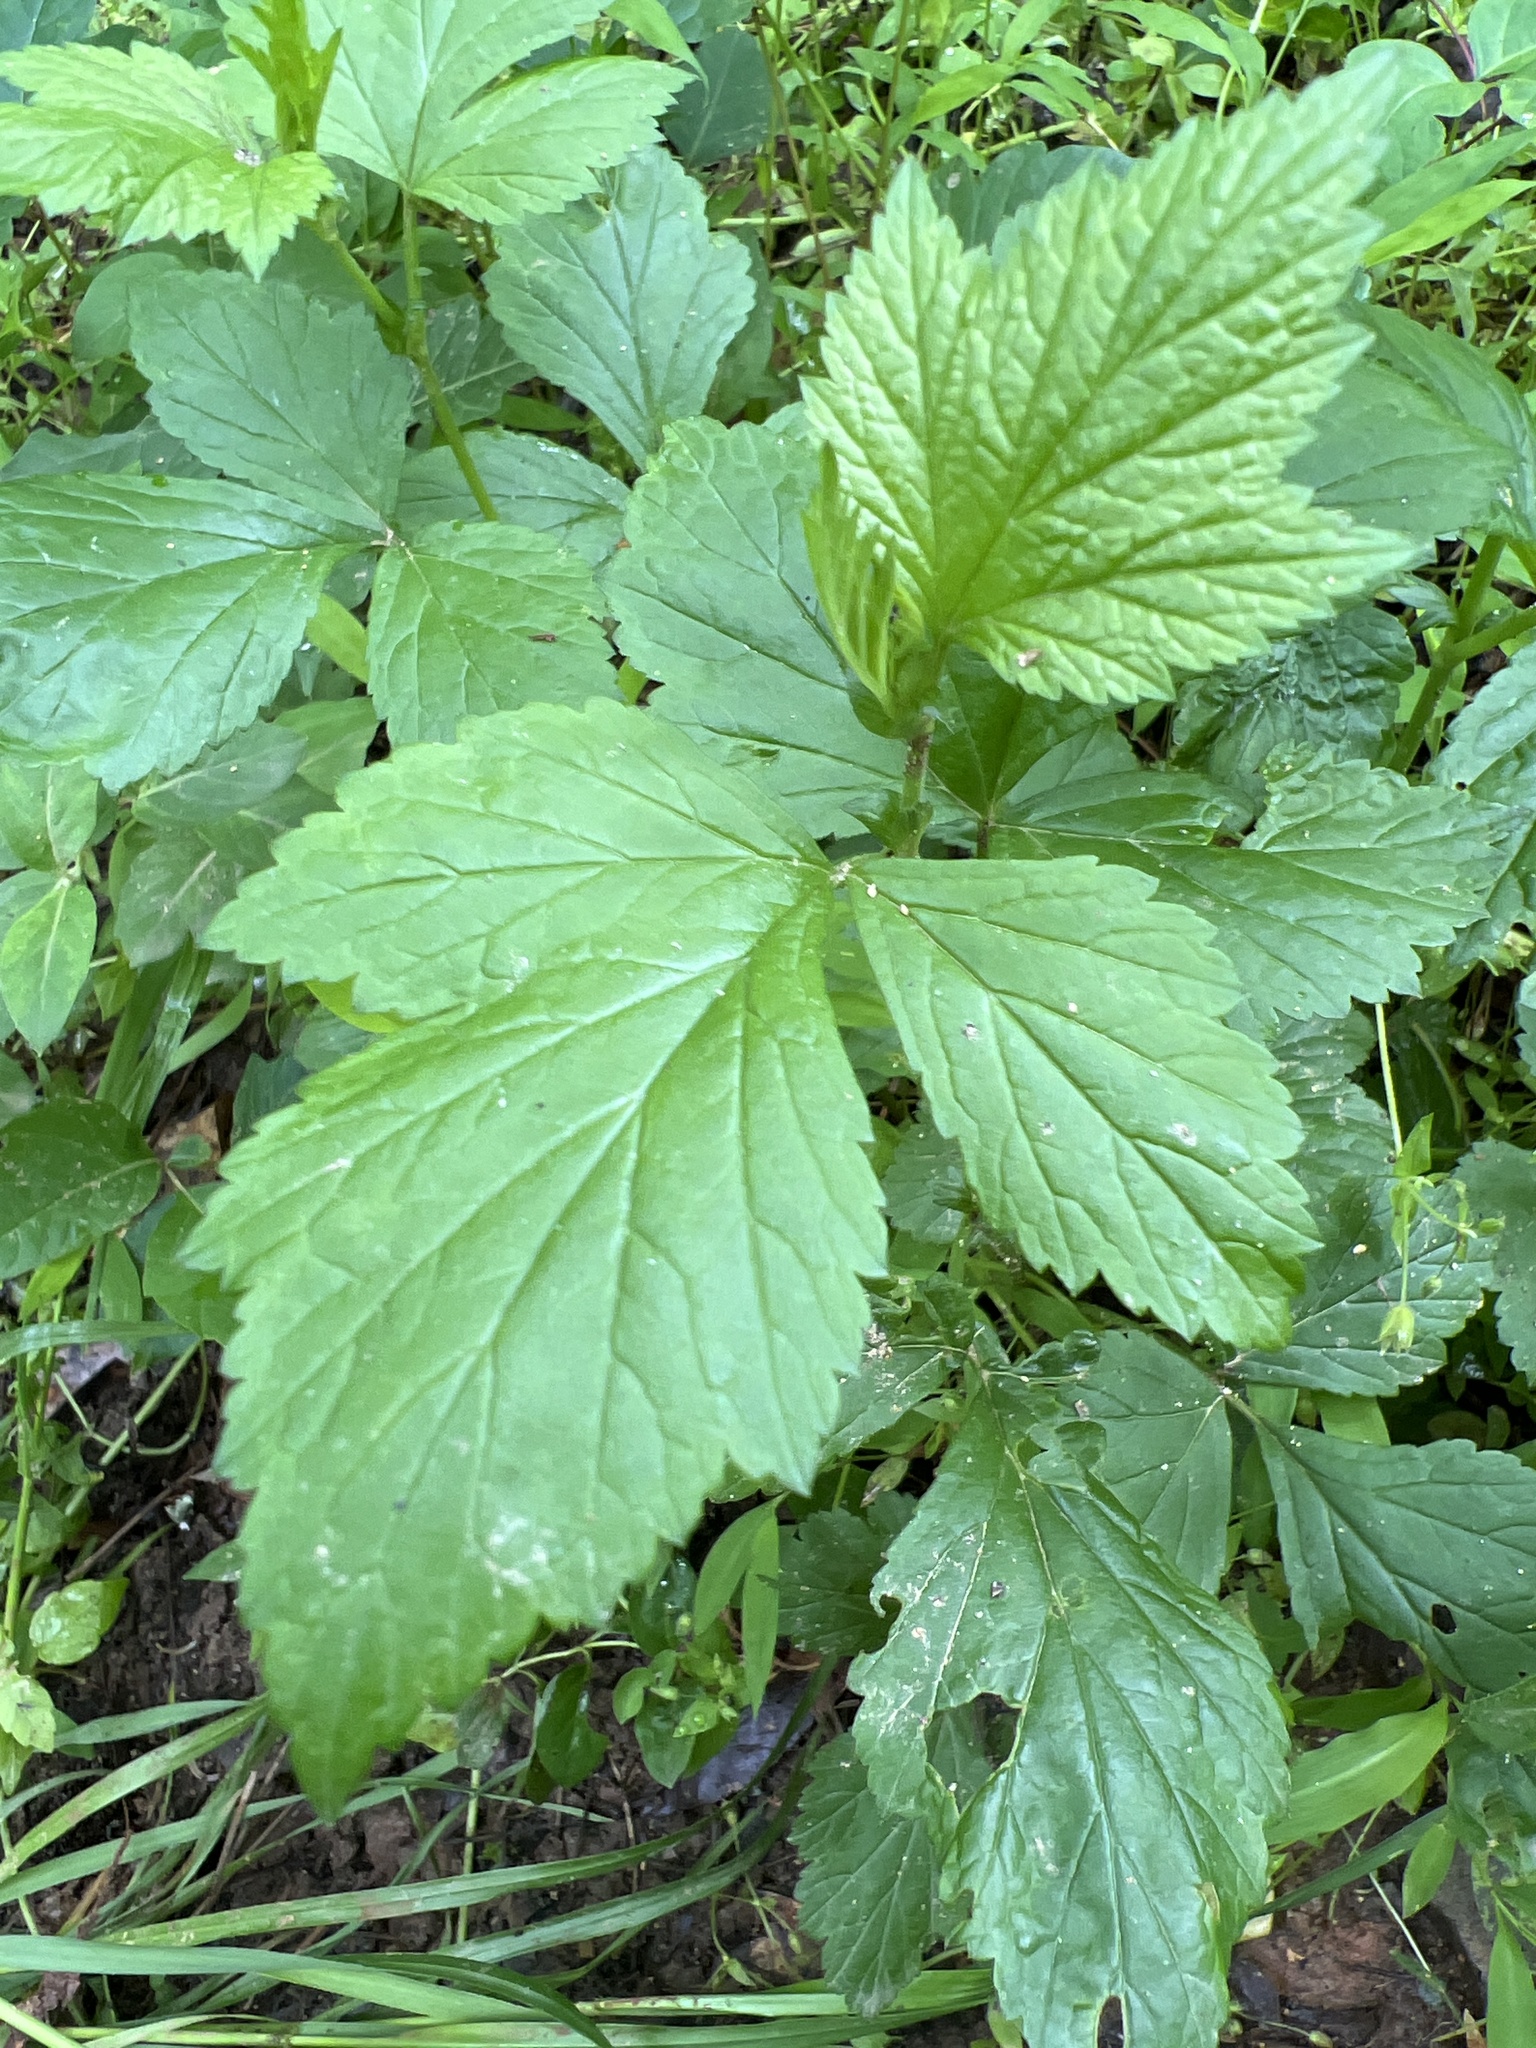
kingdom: Plantae
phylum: Tracheophyta
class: Magnoliopsida
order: Rosales
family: Rosaceae
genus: Geum
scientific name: Geum canadense
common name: White avens
